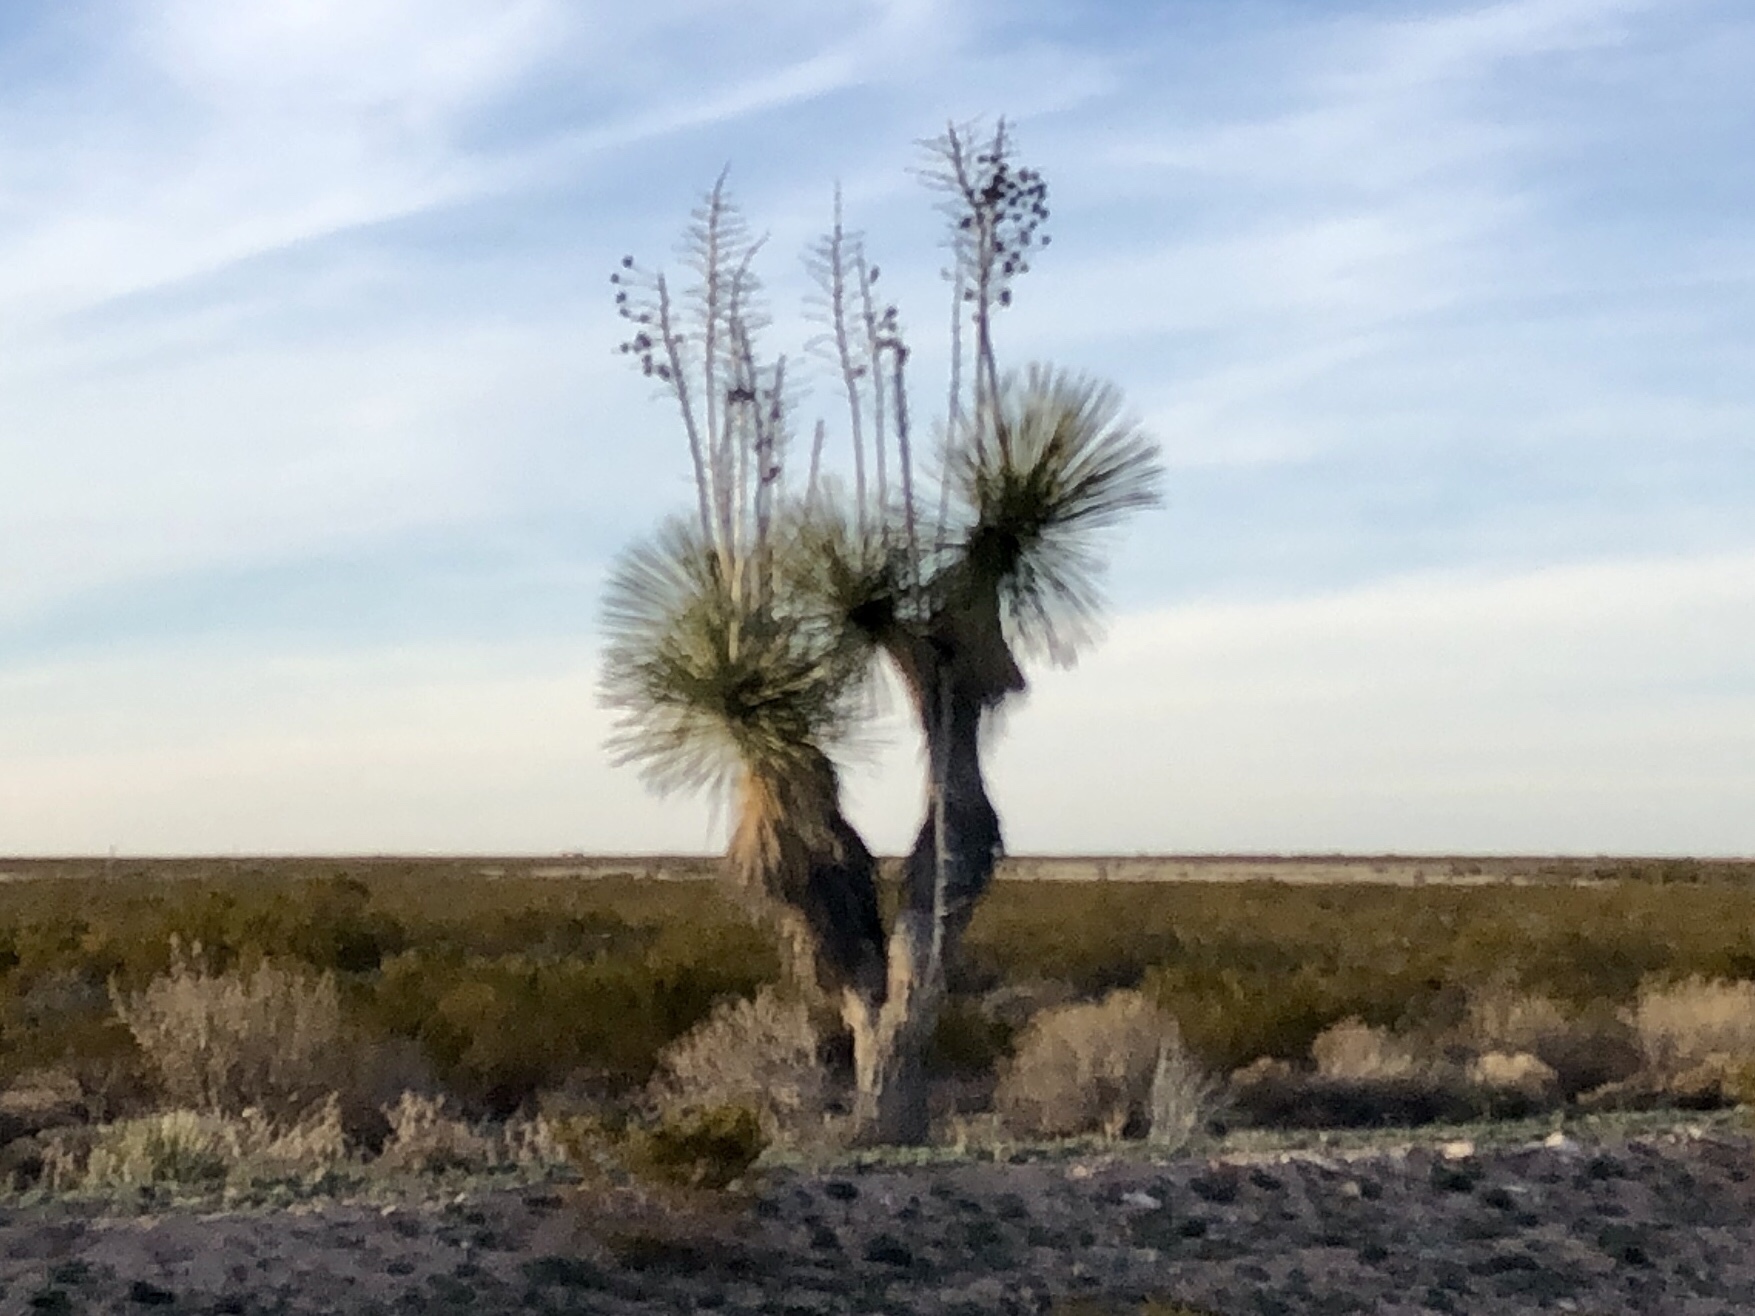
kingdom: Plantae
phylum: Tracheophyta
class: Liliopsida
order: Asparagales
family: Asparagaceae
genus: Yucca
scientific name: Yucca elata
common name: Palmella
